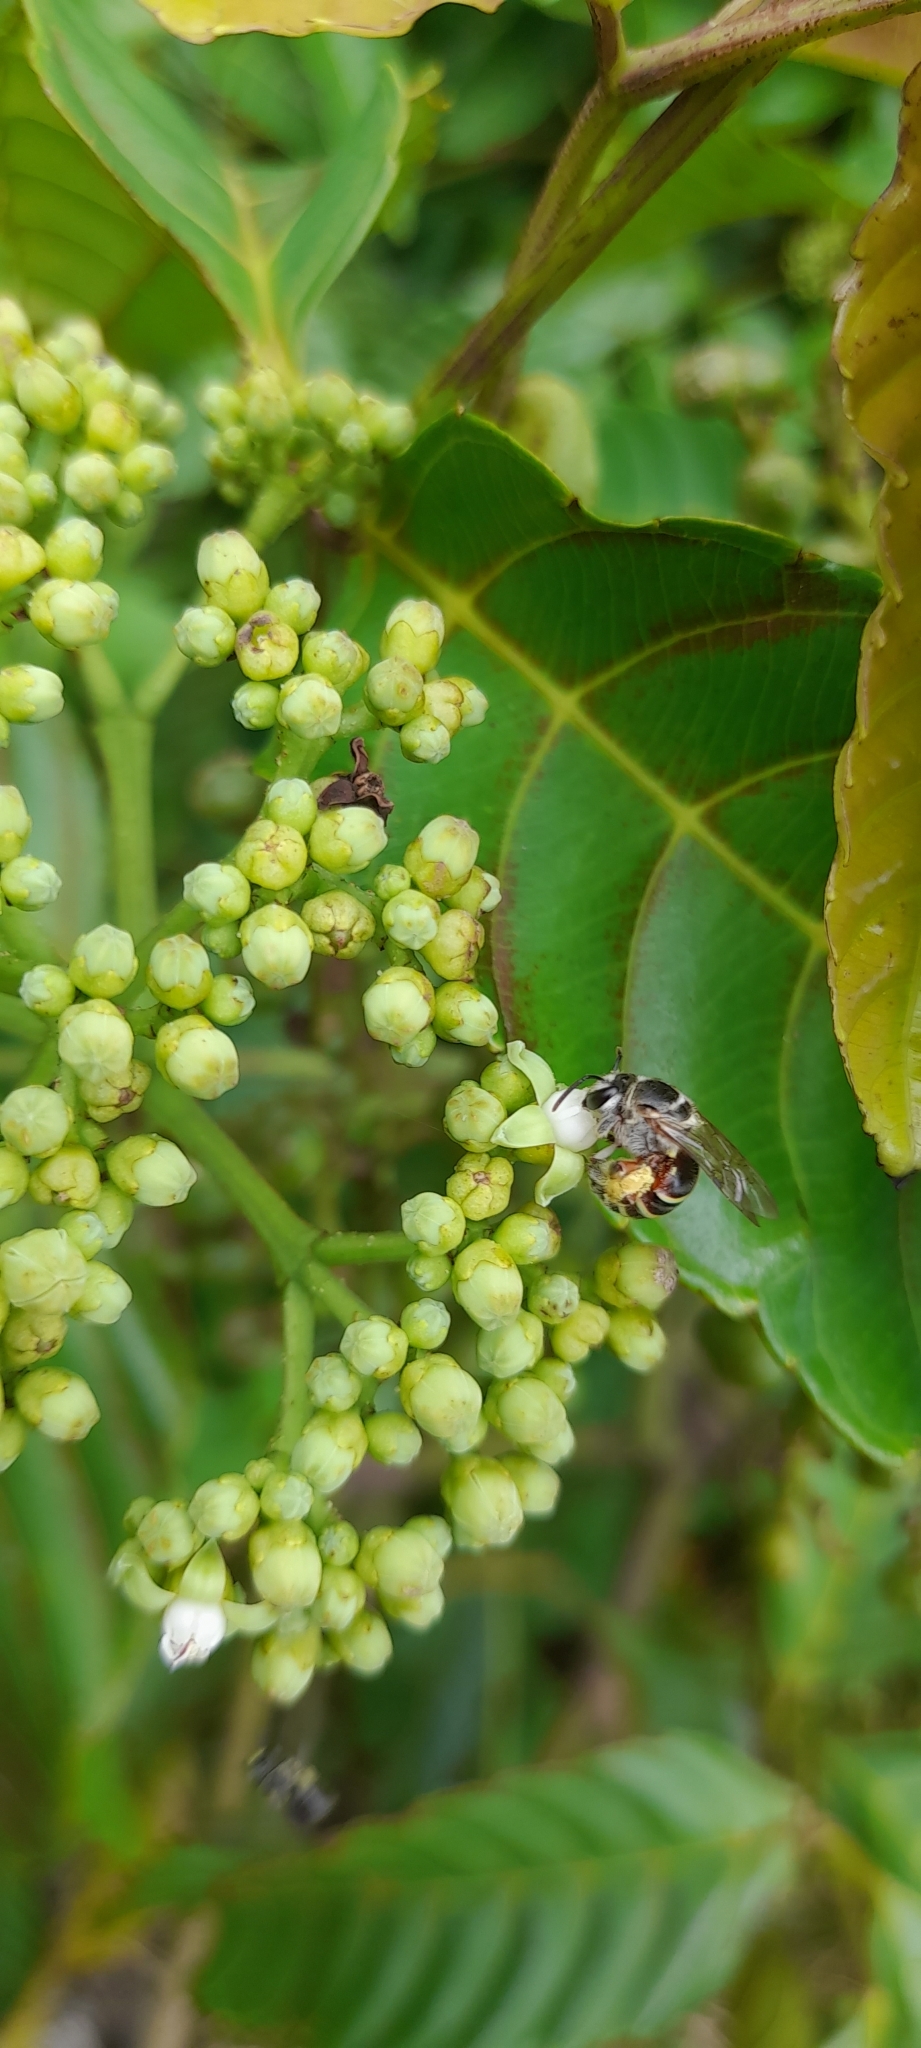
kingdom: Animalia
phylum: Arthropoda
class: Insecta
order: Hymenoptera
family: Halictidae
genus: Nomia
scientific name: Nomia westwoodi
